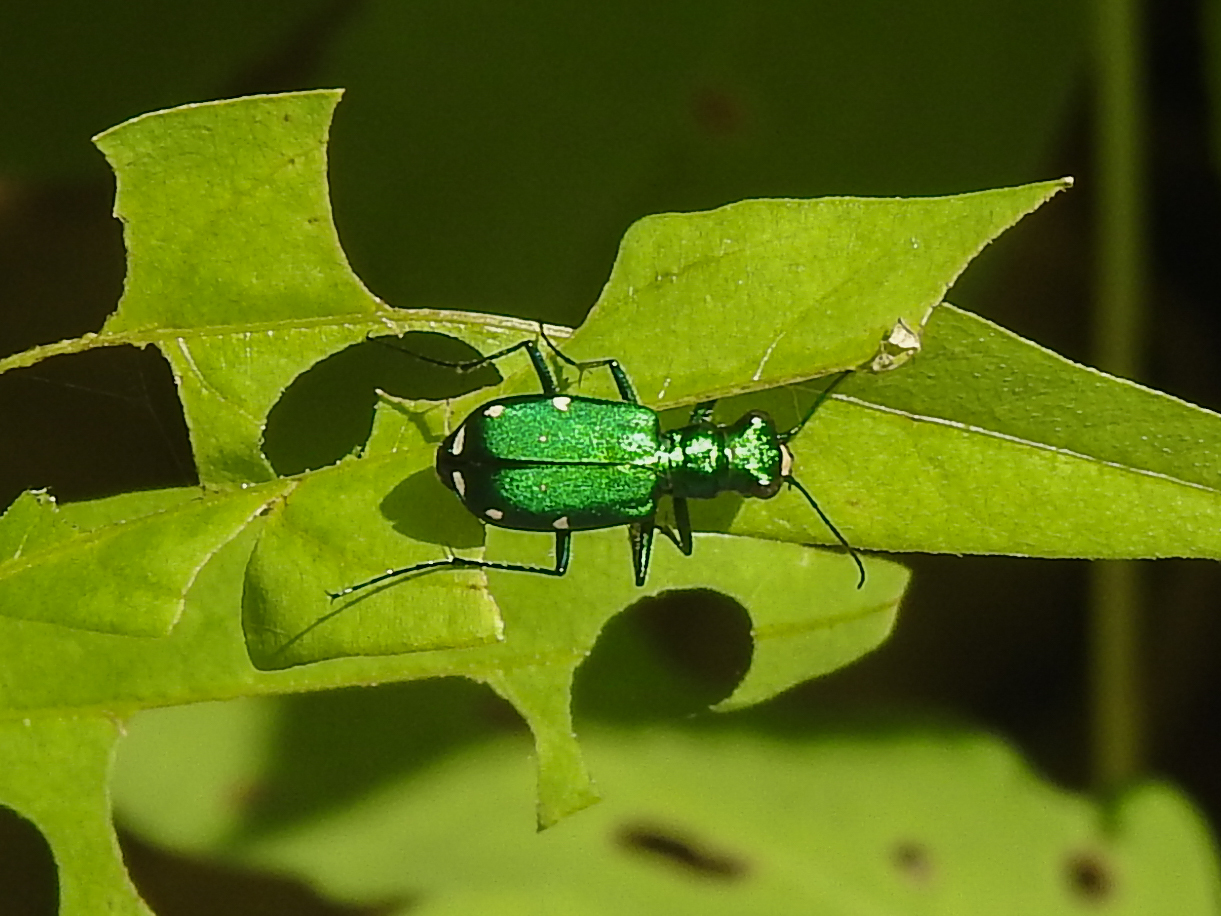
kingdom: Animalia
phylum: Arthropoda
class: Insecta
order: Coleoptera
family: Carabidae
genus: Cicindela
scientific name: Cicindela sexguttata
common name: Six-spotted tiger beetle
